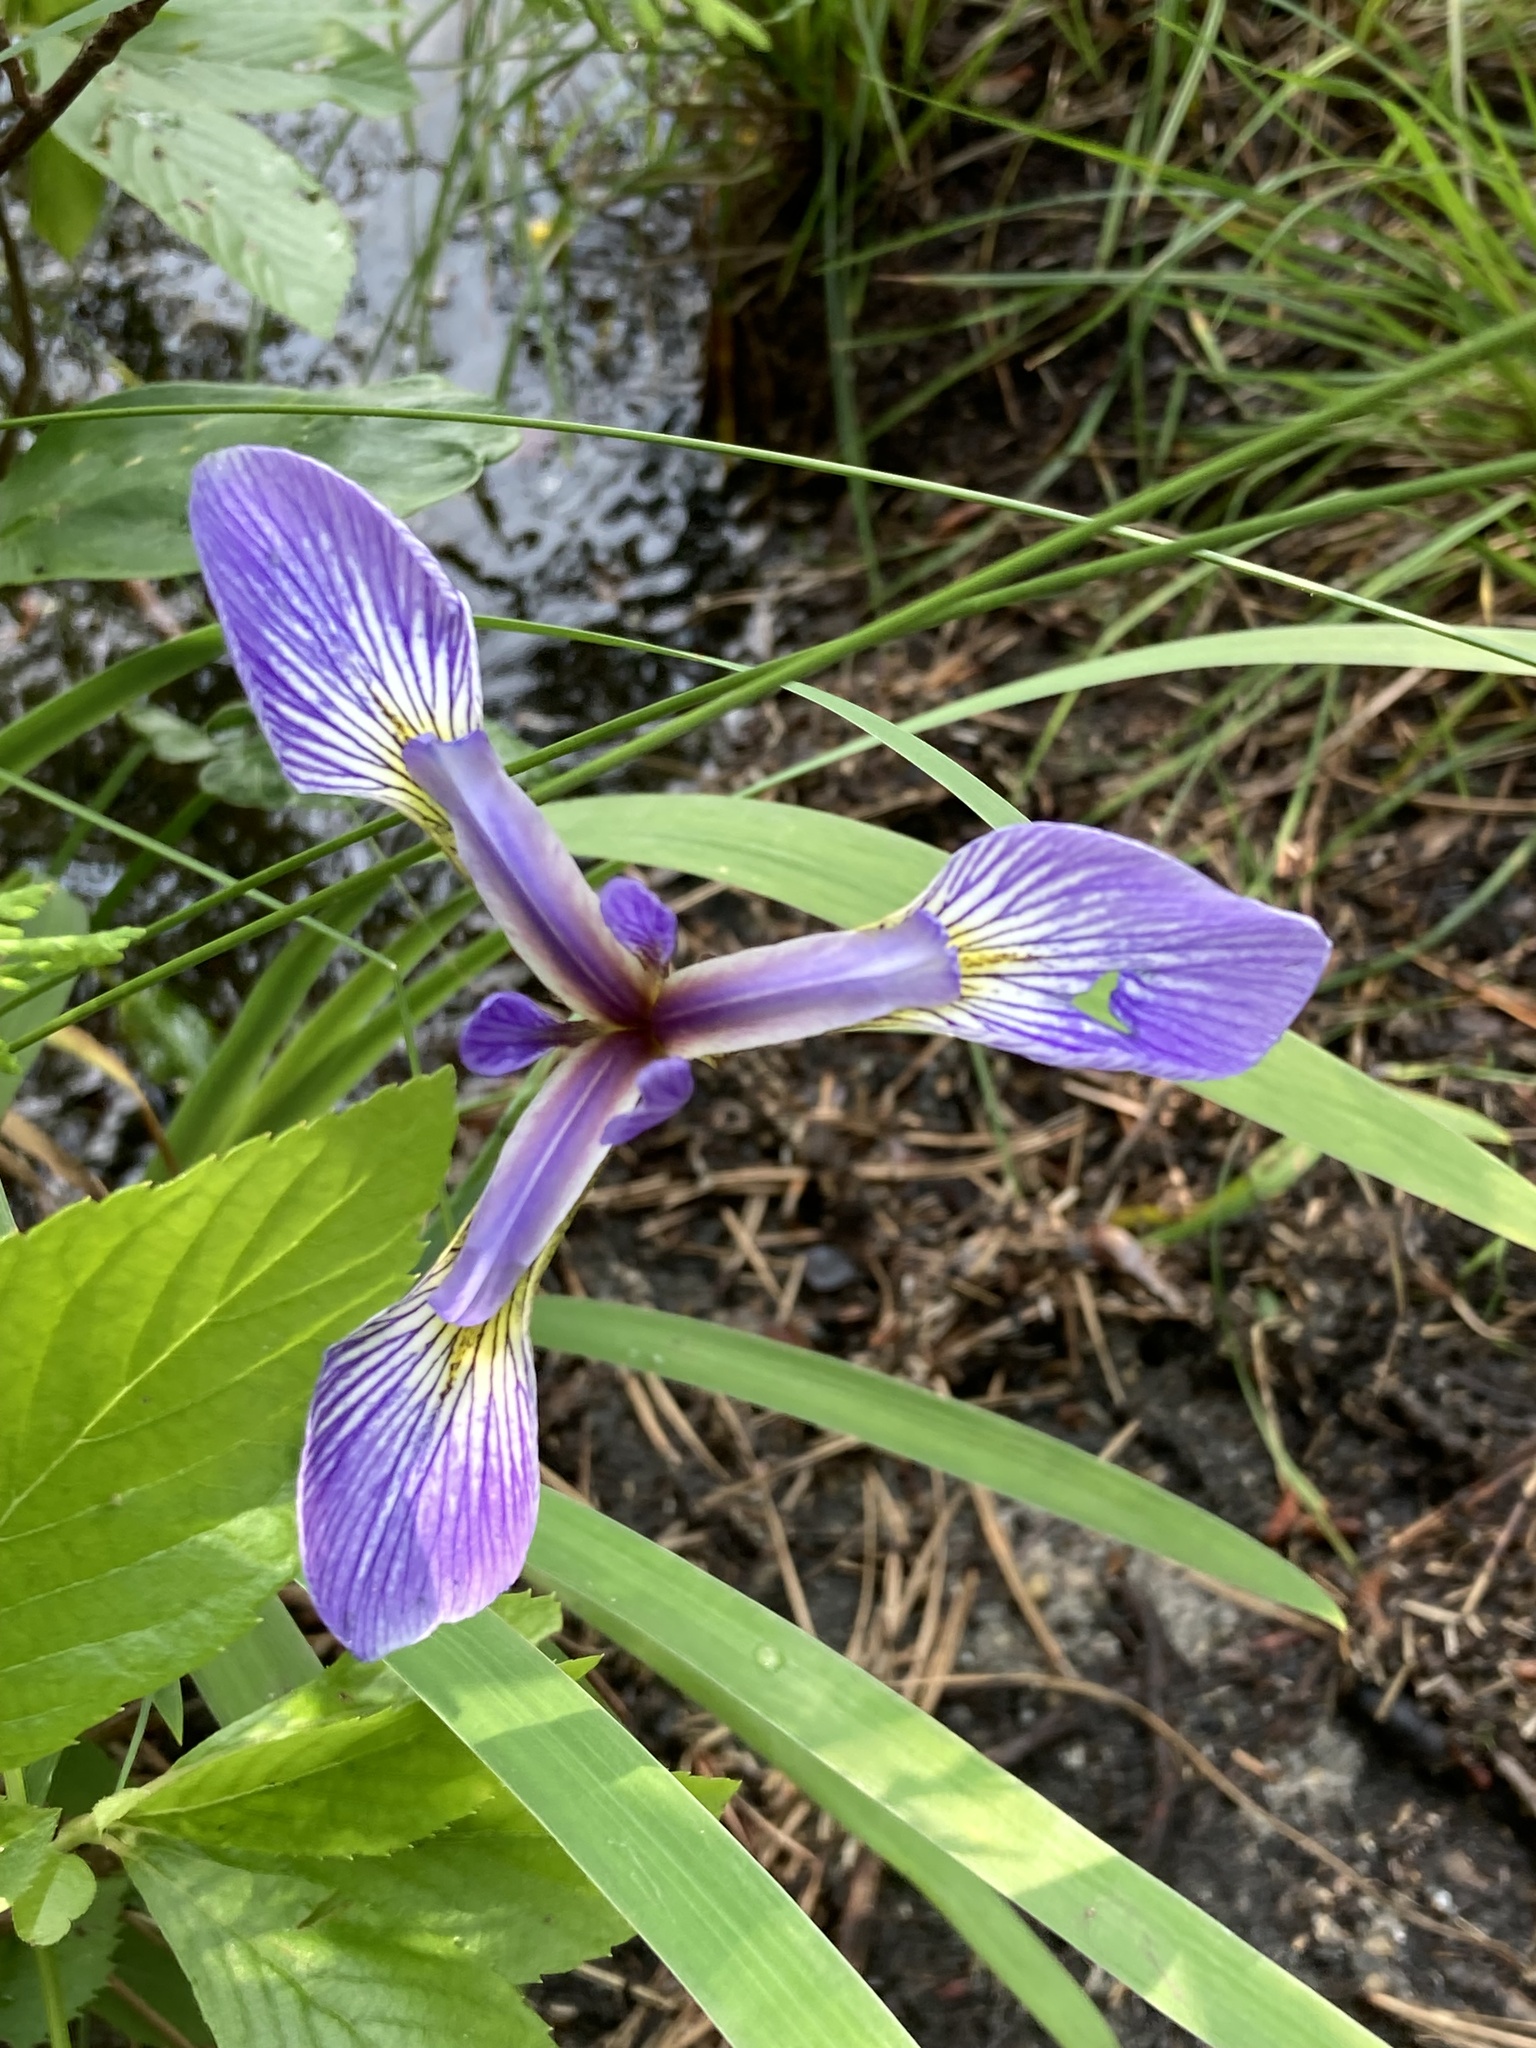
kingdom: Plantae
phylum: Tracheophyta
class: Liliopsida
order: Asparagales
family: Iridaceae
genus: Iris
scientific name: Iris versicolor
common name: Purple iris
